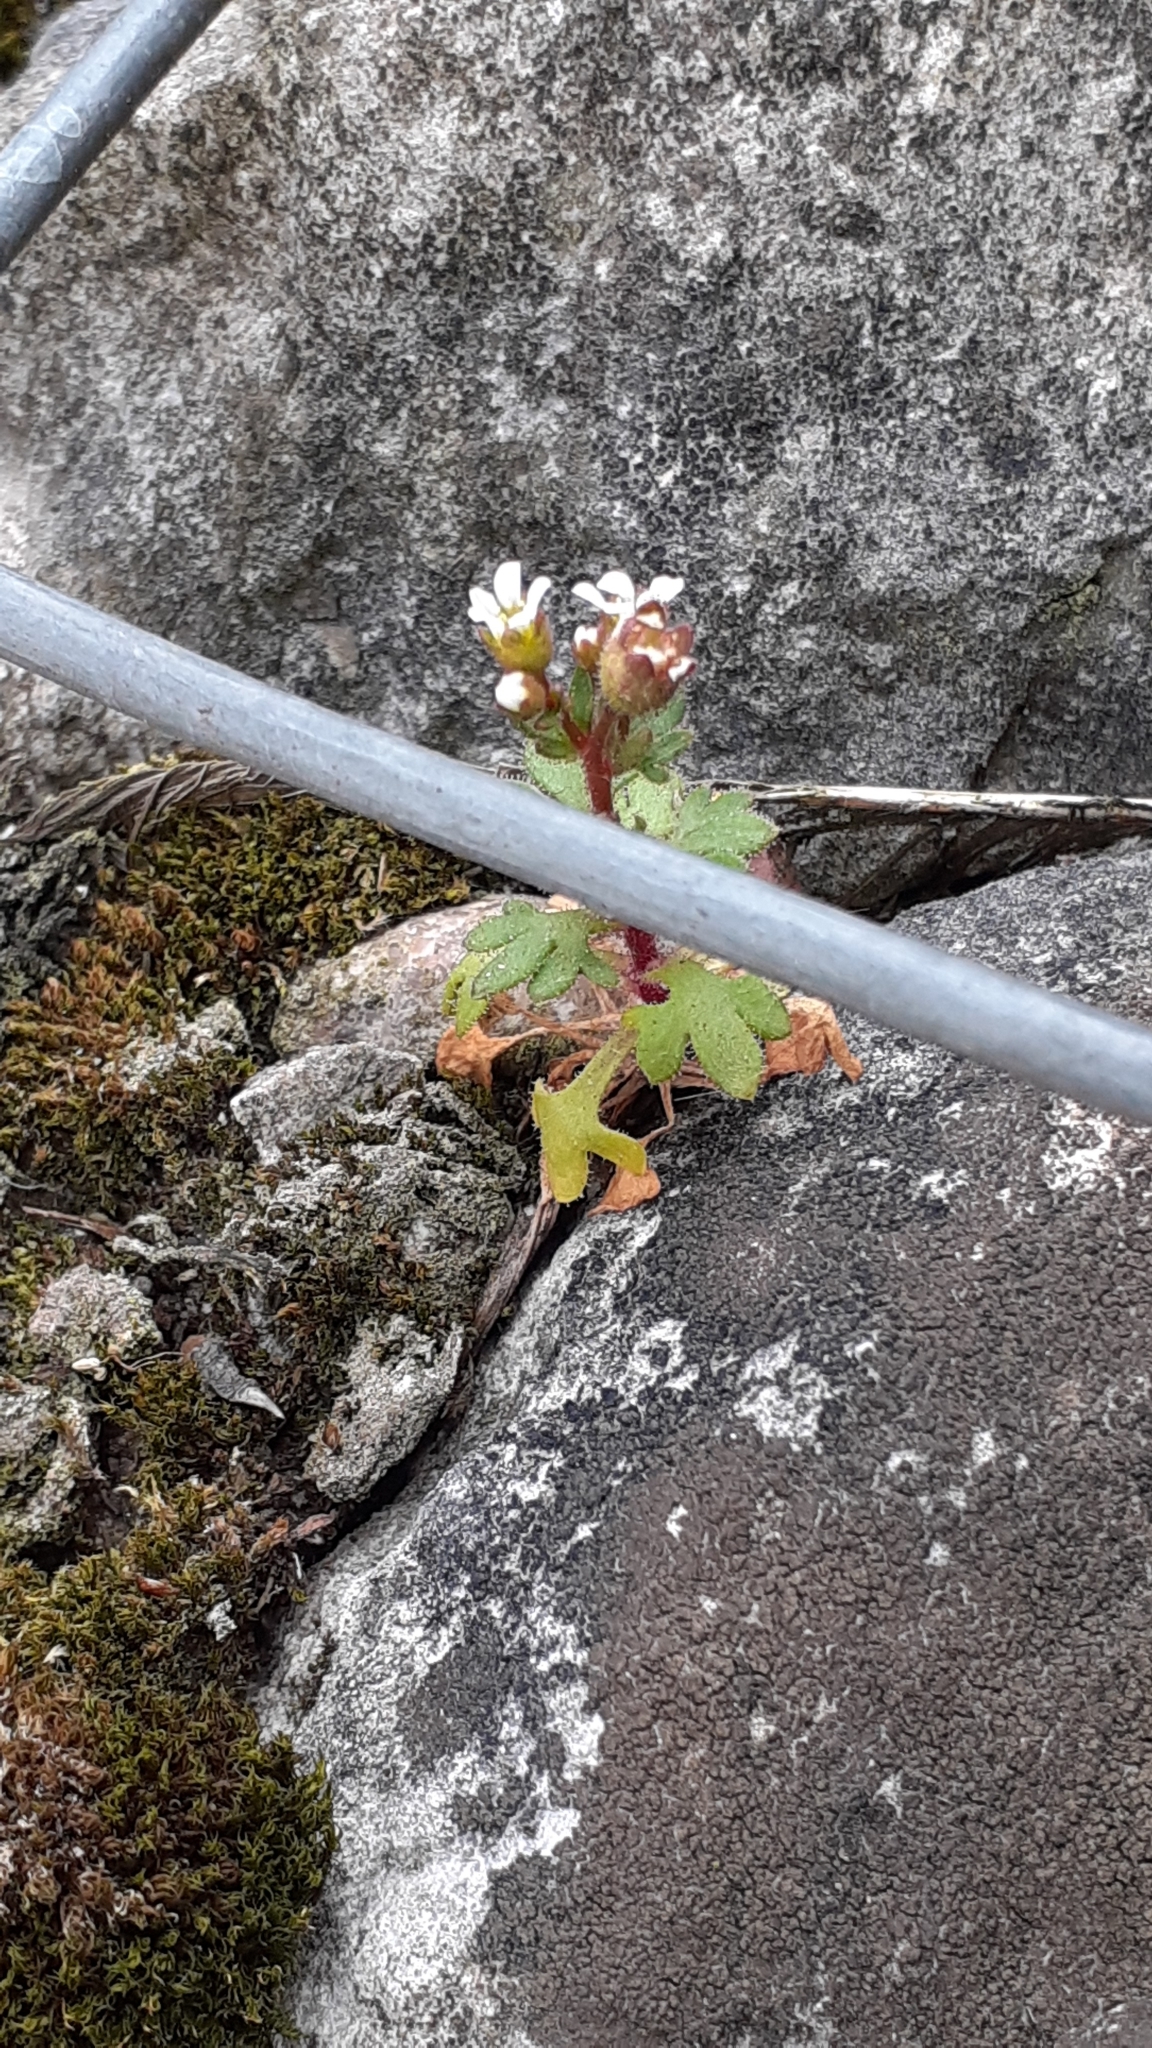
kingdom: Plantae
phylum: Tracheophyta
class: Magnoliopsida
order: Saxifragales
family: Saxifragaceae
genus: Saxifraga
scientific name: Saxifraga tridactylites
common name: Rue-leaved saxifrage
